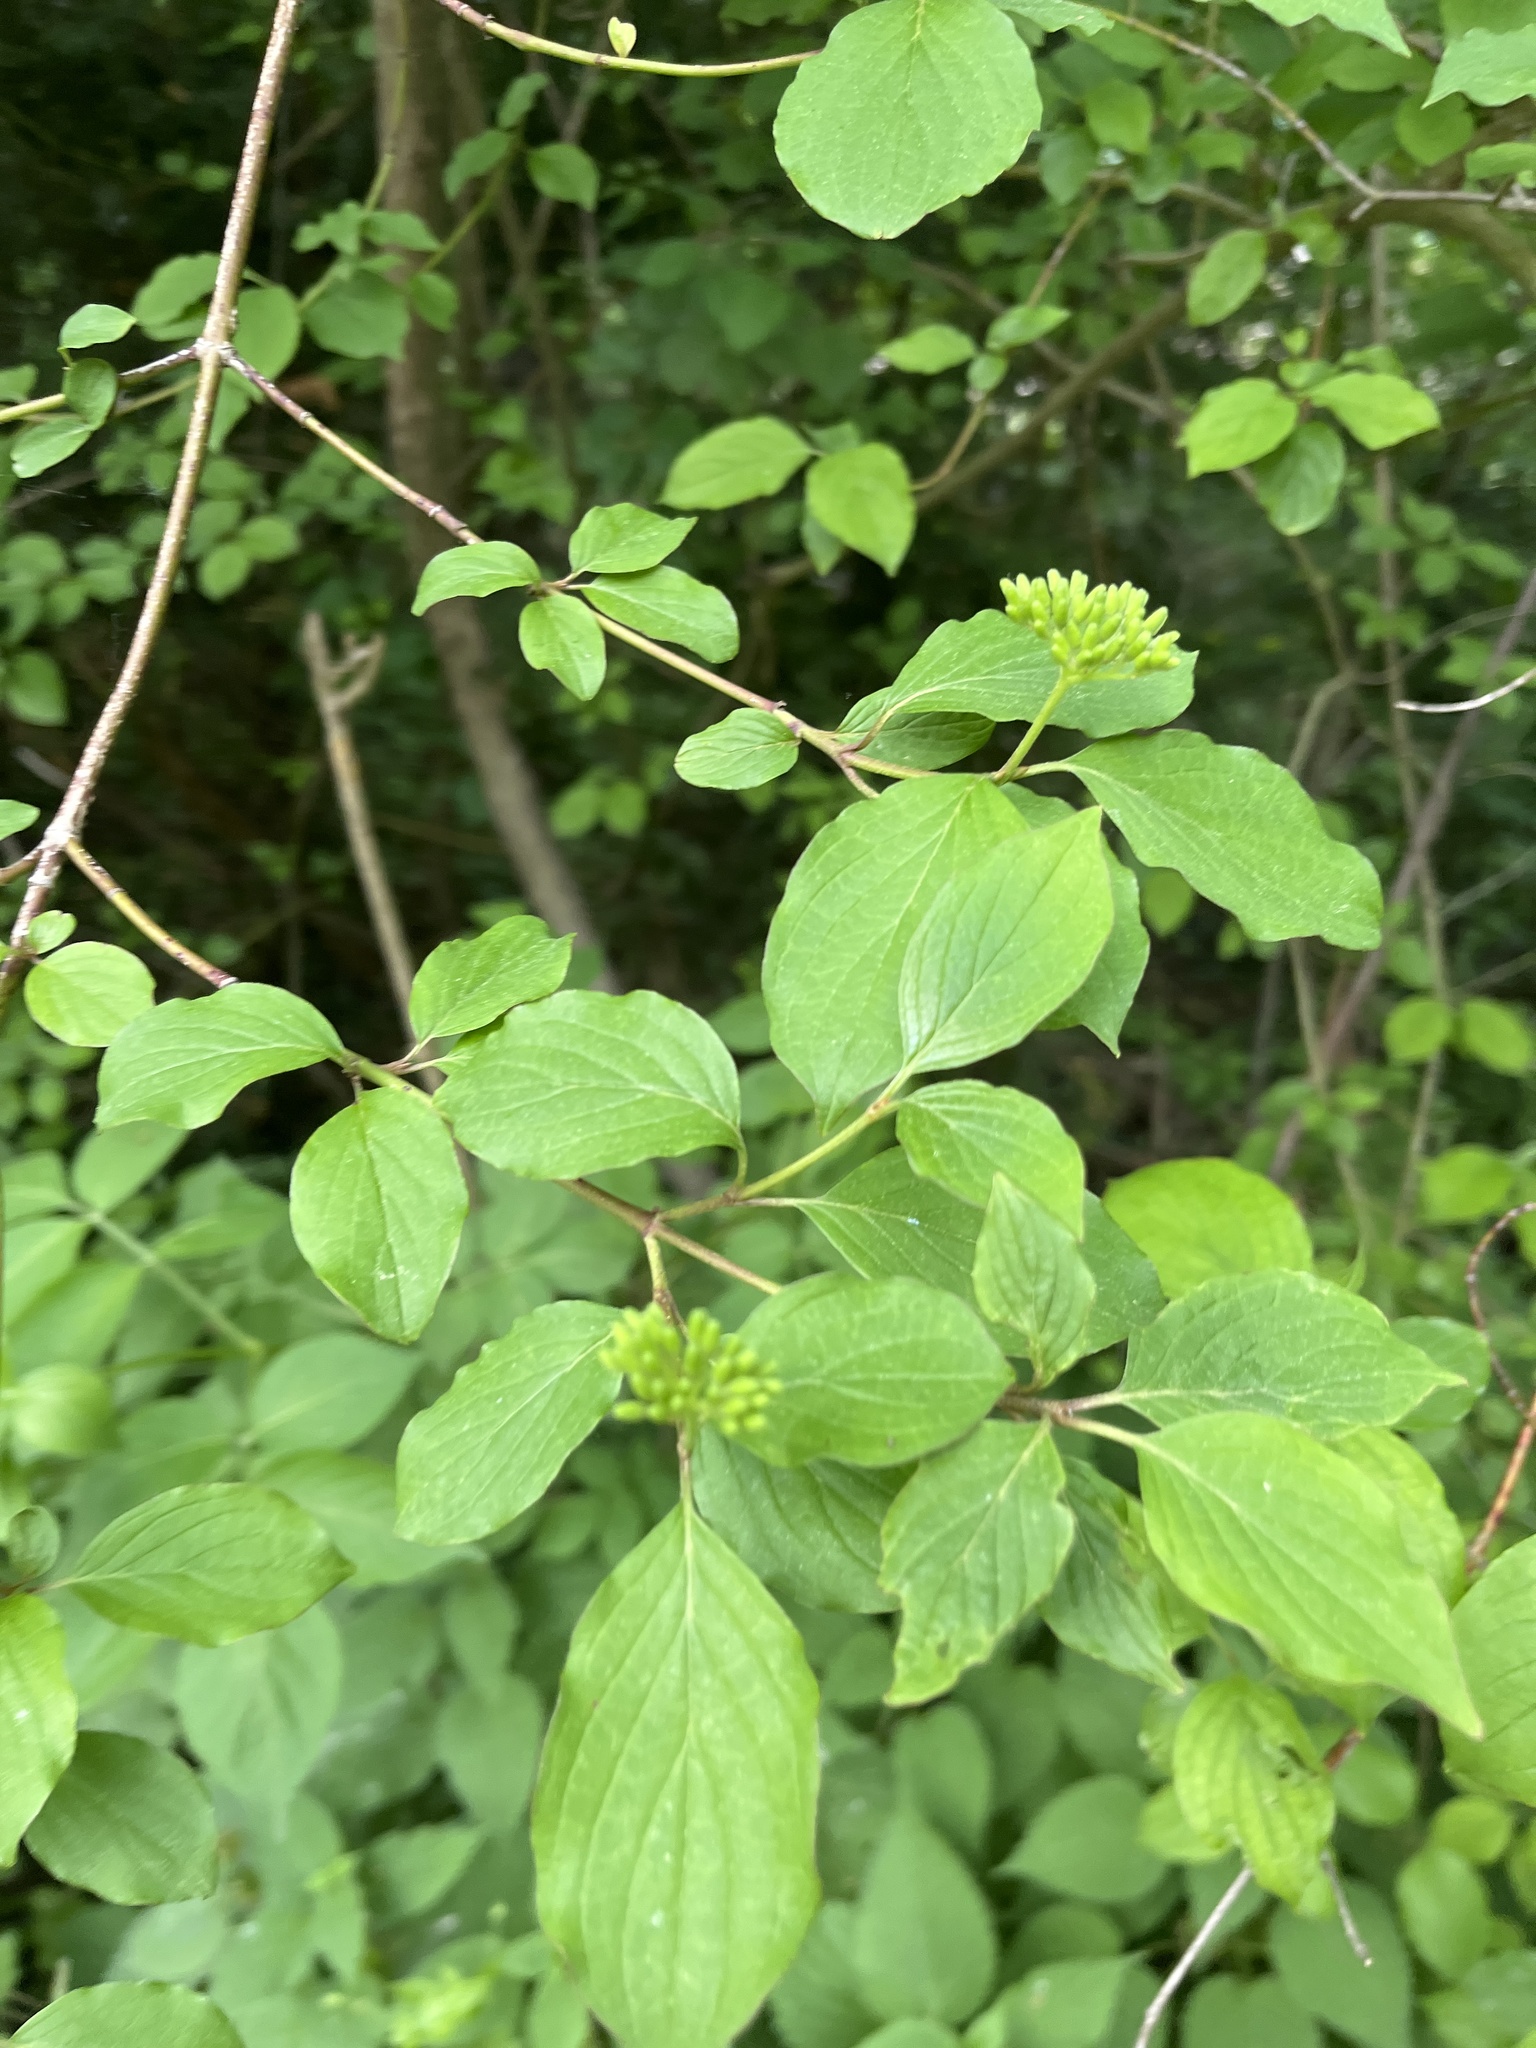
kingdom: Plantae
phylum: Tracheophyta
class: Magnoliopsida
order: Cornales
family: Cornaceae
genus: Cornus
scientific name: Cornus sanguinea
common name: Dogwood
